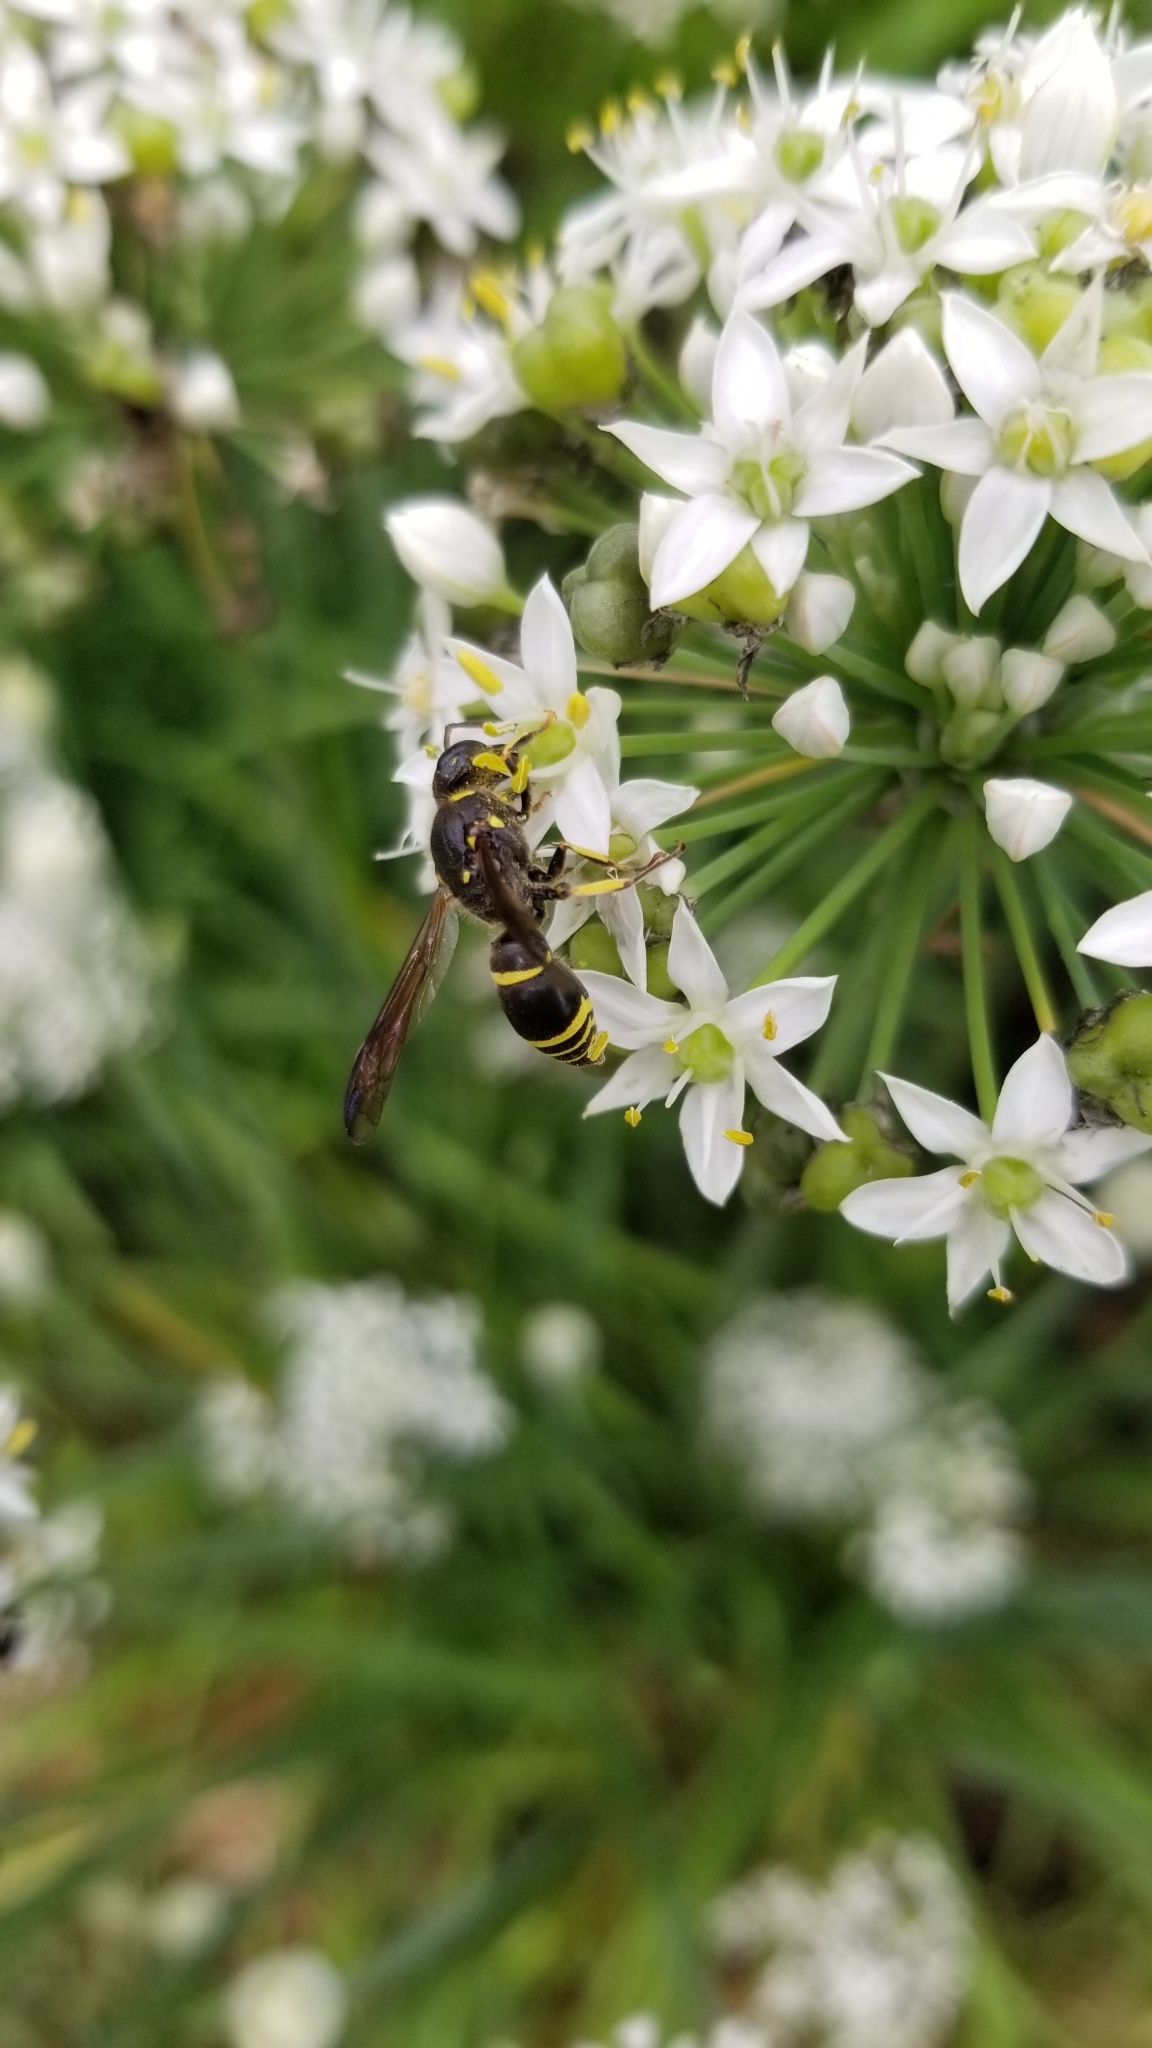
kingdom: Animalia
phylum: Arthropoda
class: Insecta
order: Hymenoptera
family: Vespidae
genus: Ancistrocerus
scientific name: Ancistrocerus
